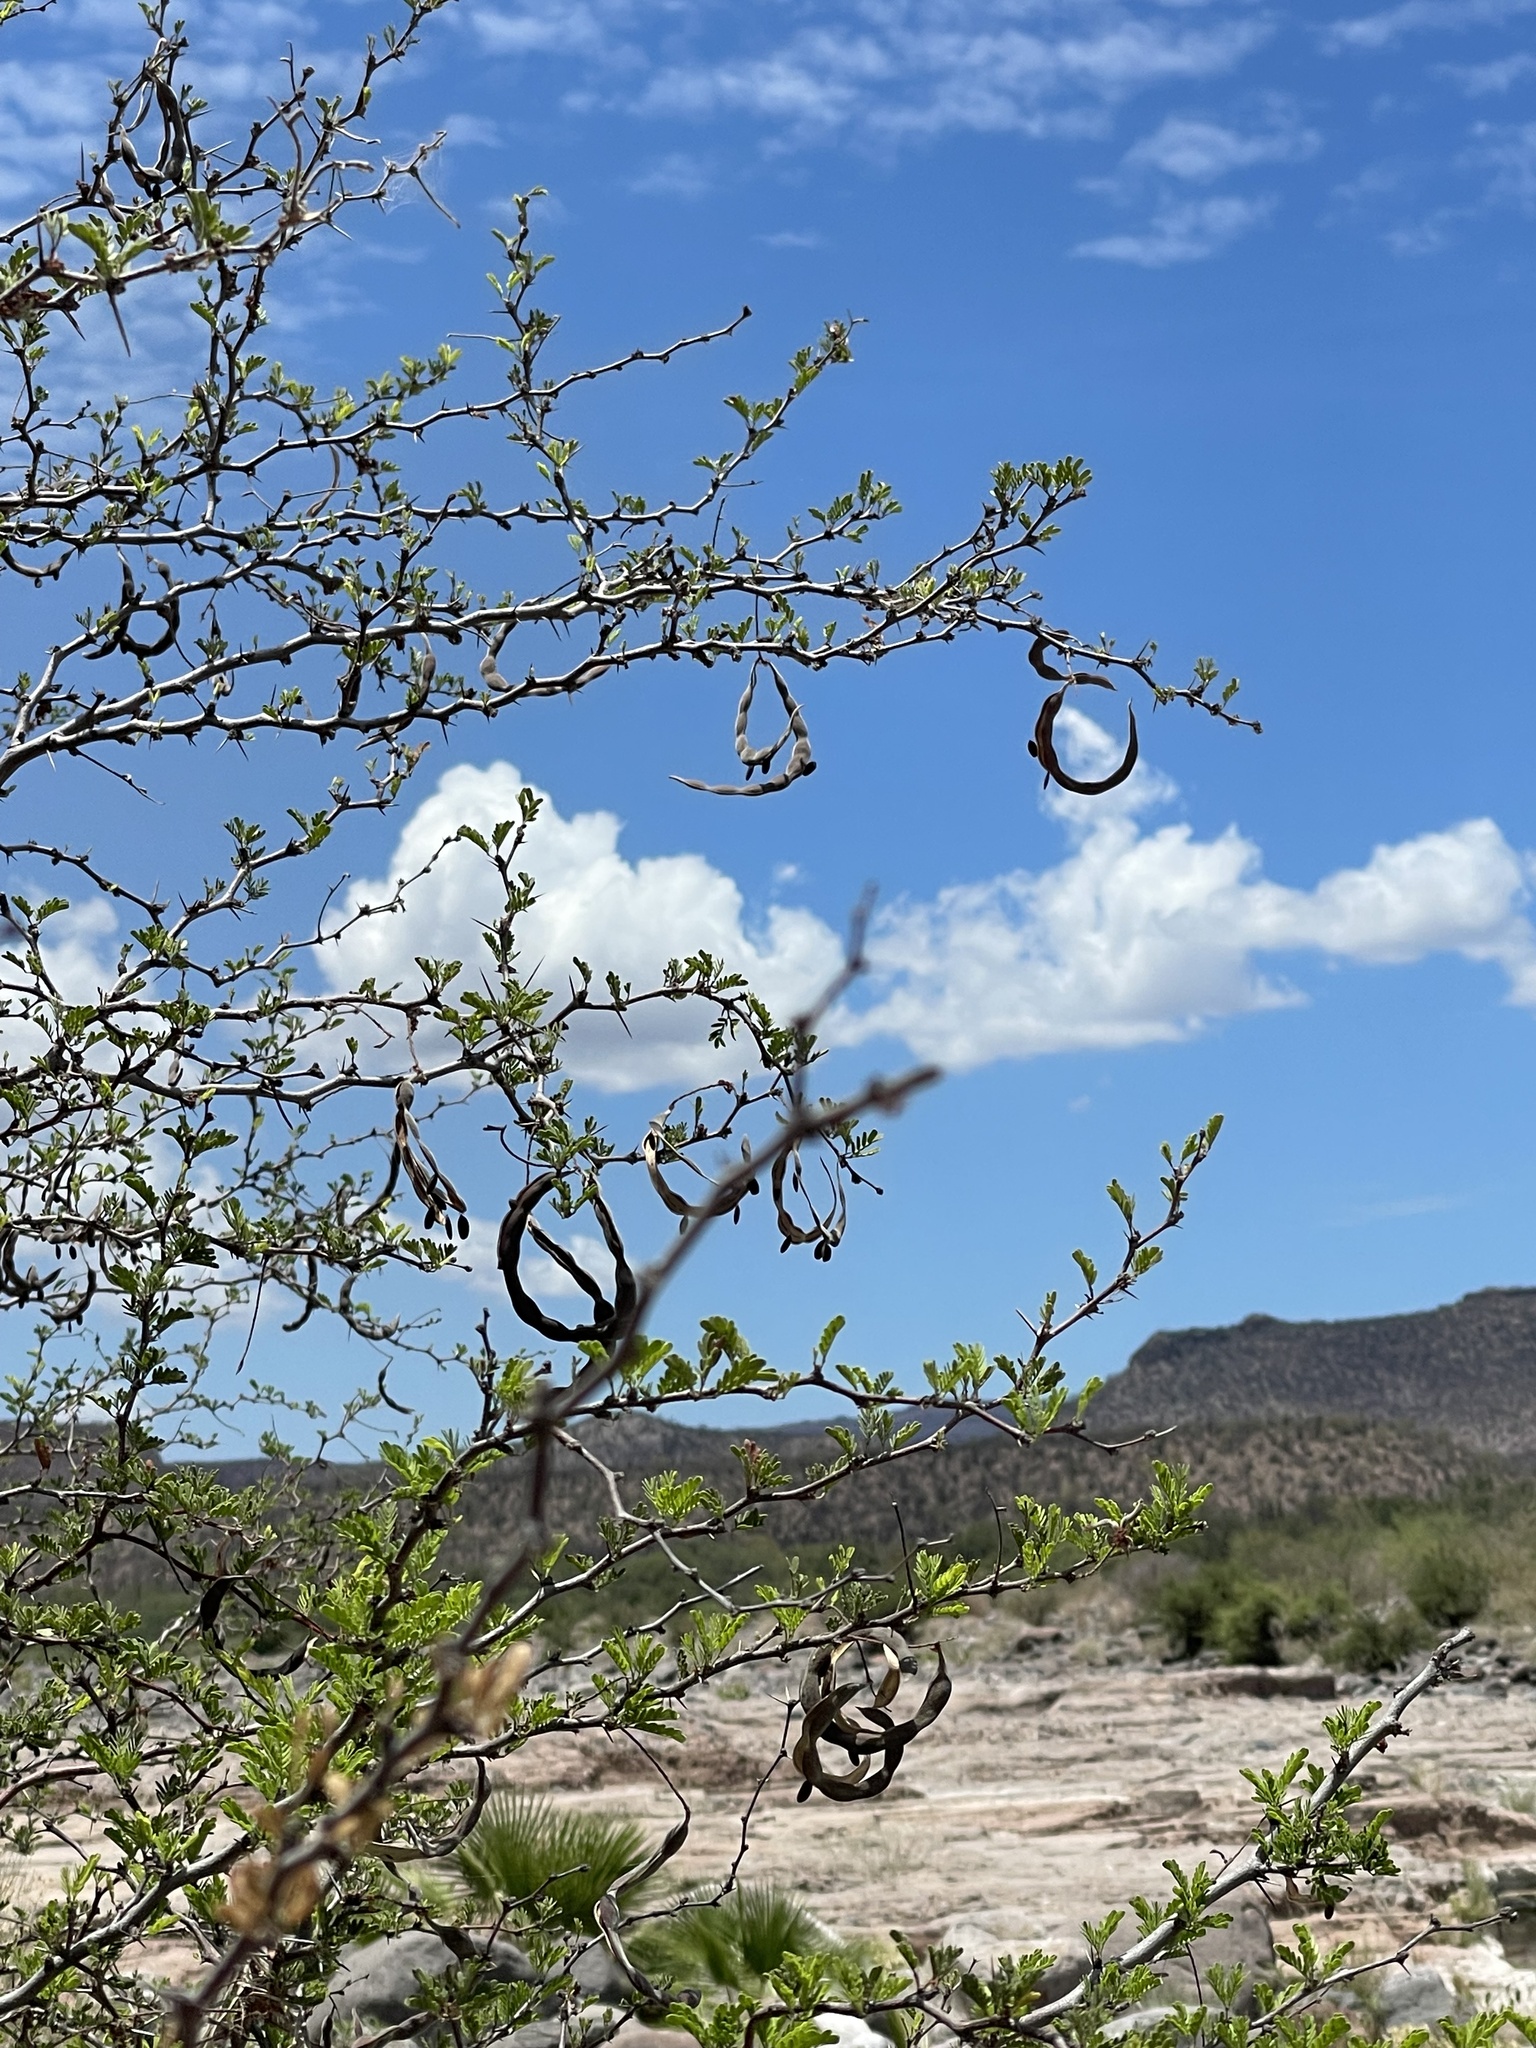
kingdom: Plantae
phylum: Tracheophyta
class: Magnoliopsida
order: Fabales
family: Fabaceae
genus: Vachellia
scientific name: Vachellia constricta
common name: Mescat acacia
